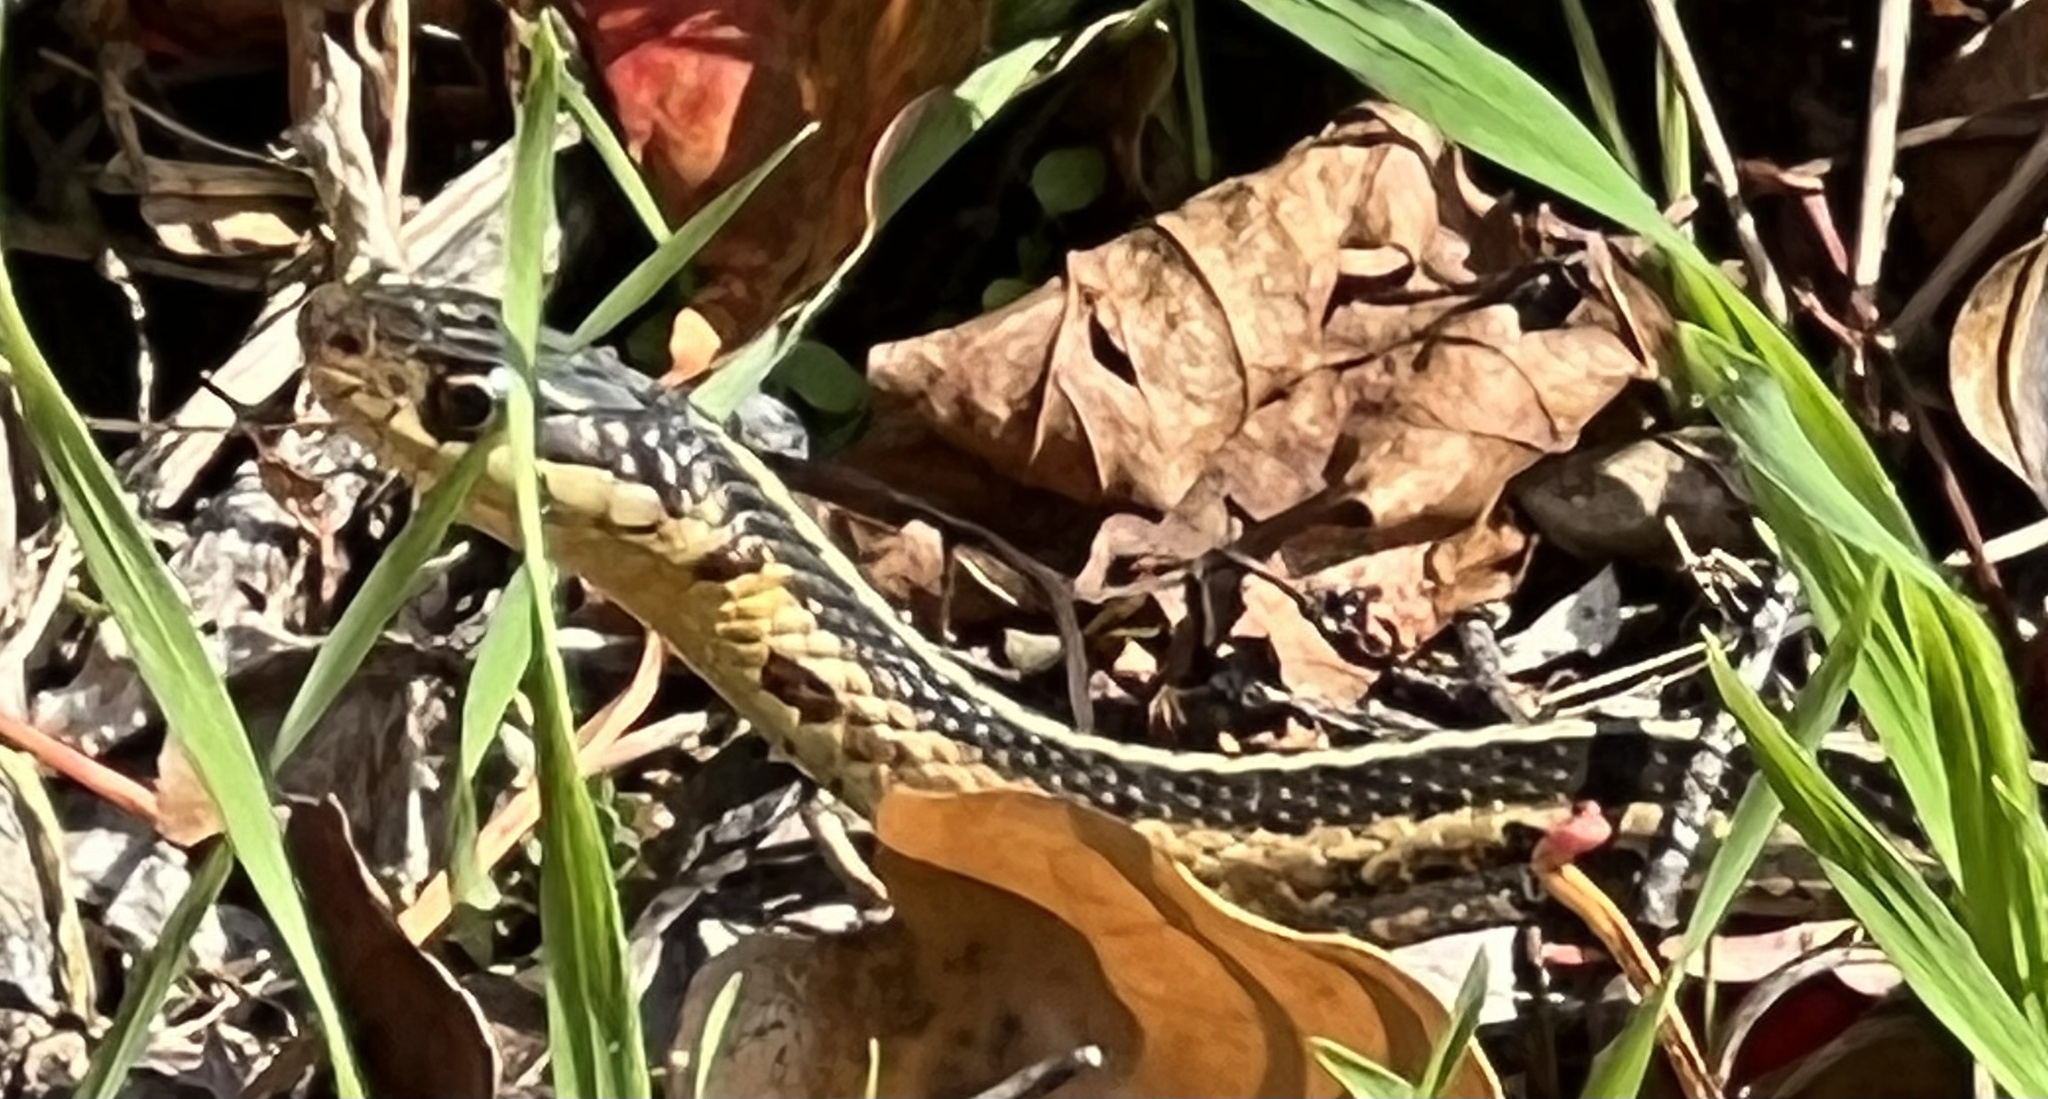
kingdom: Animalia
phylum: Chordata
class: Squamata
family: Colubridae
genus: Thamnophis
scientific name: Thamnophis sirtalis
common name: Common garter snake
